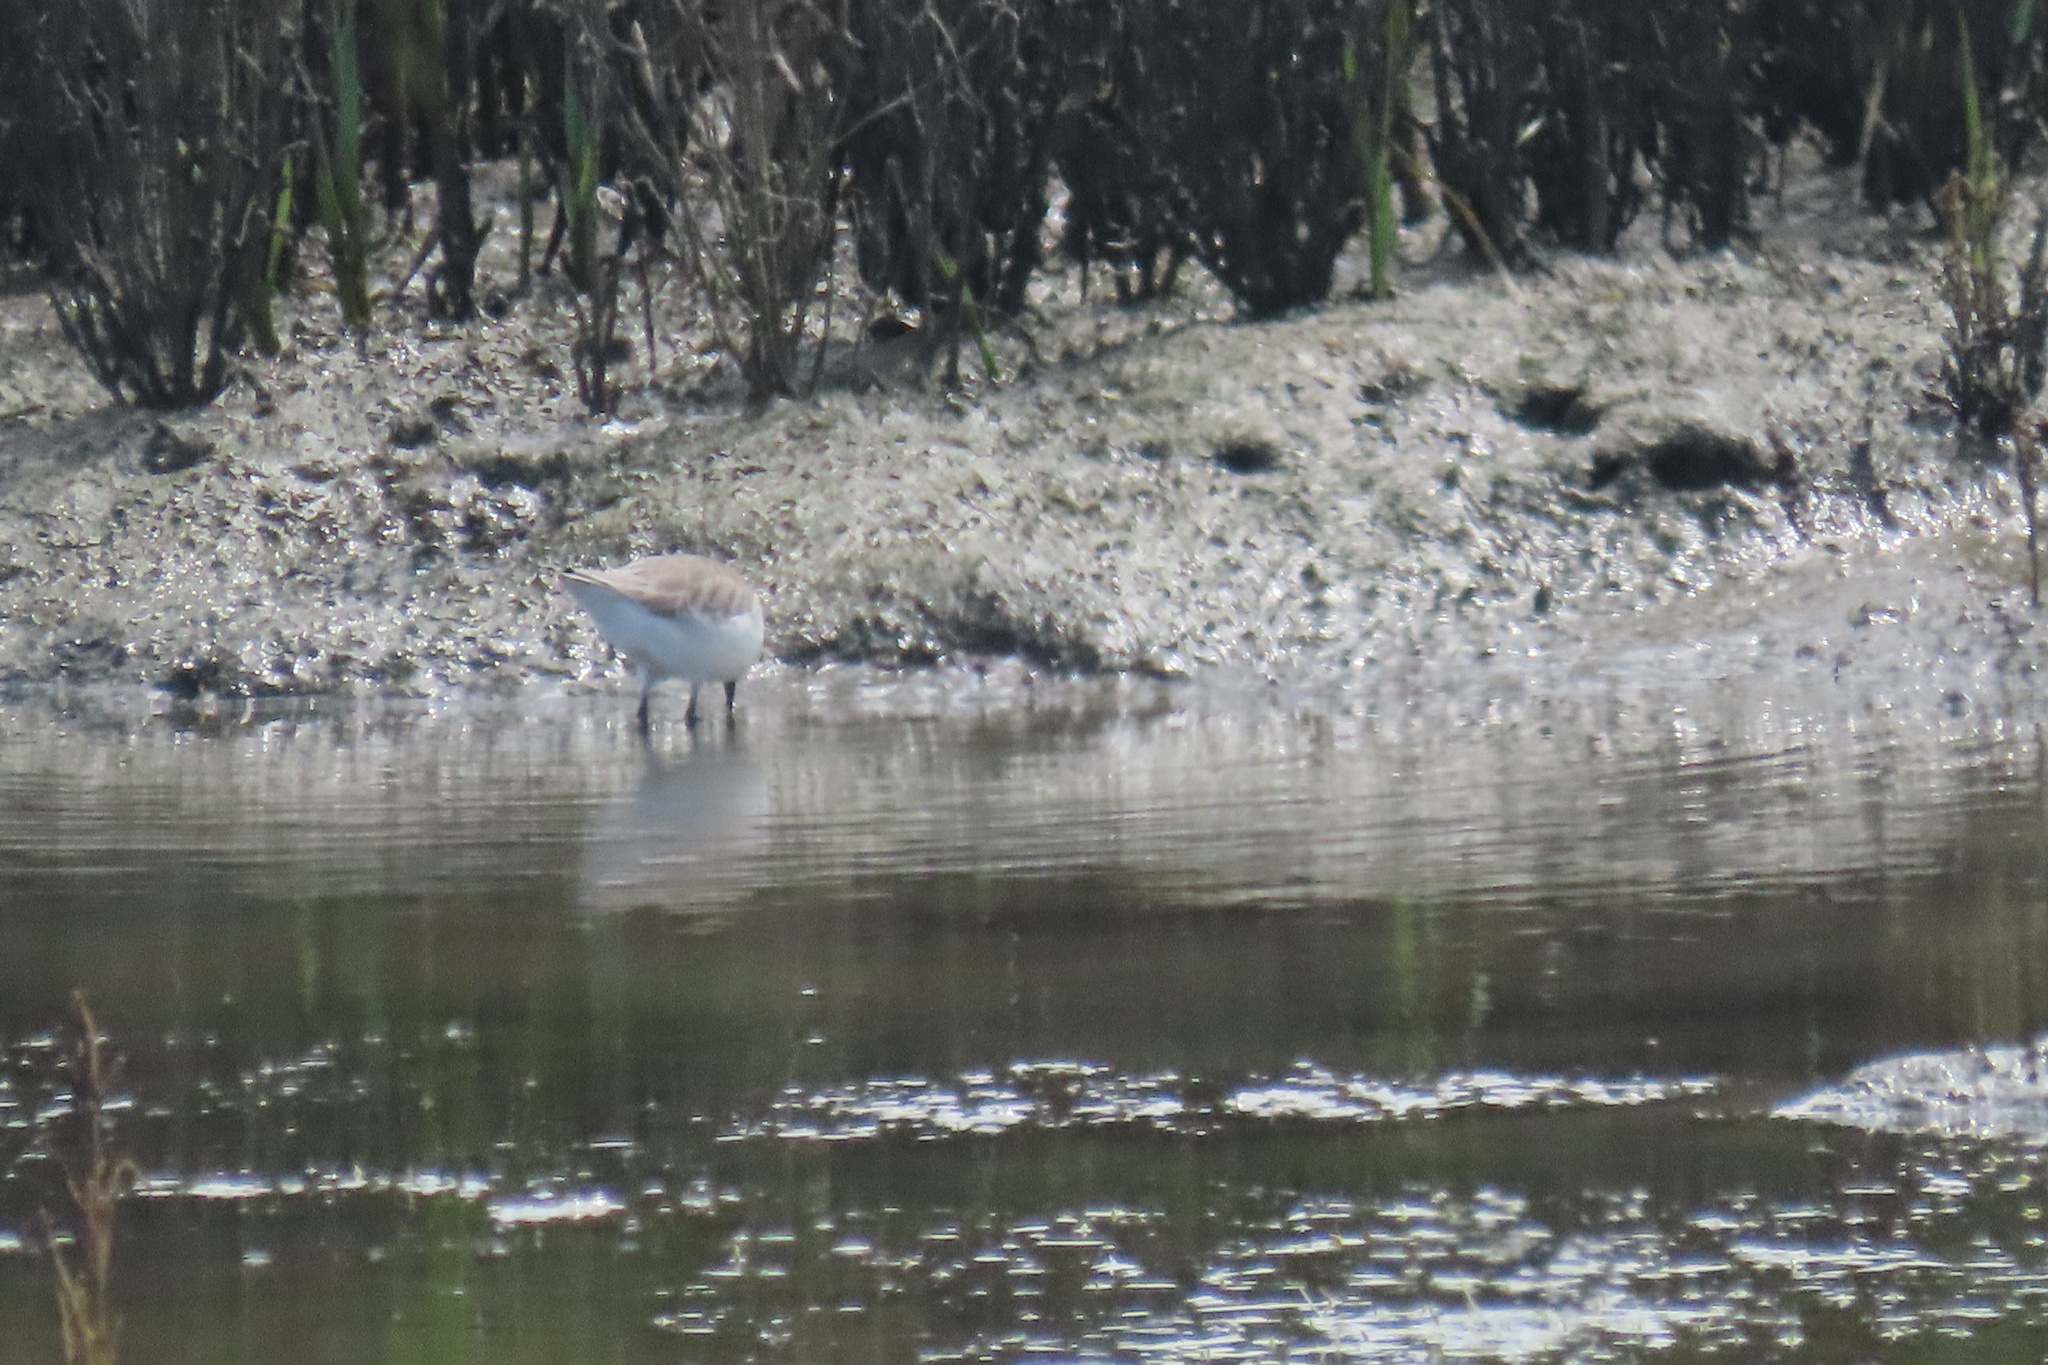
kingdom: Animalia
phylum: Chordata
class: Aves
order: Charadriiformes
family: Scolopacidae
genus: Calidris
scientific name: Calidris mauri
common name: Western sandpiper
